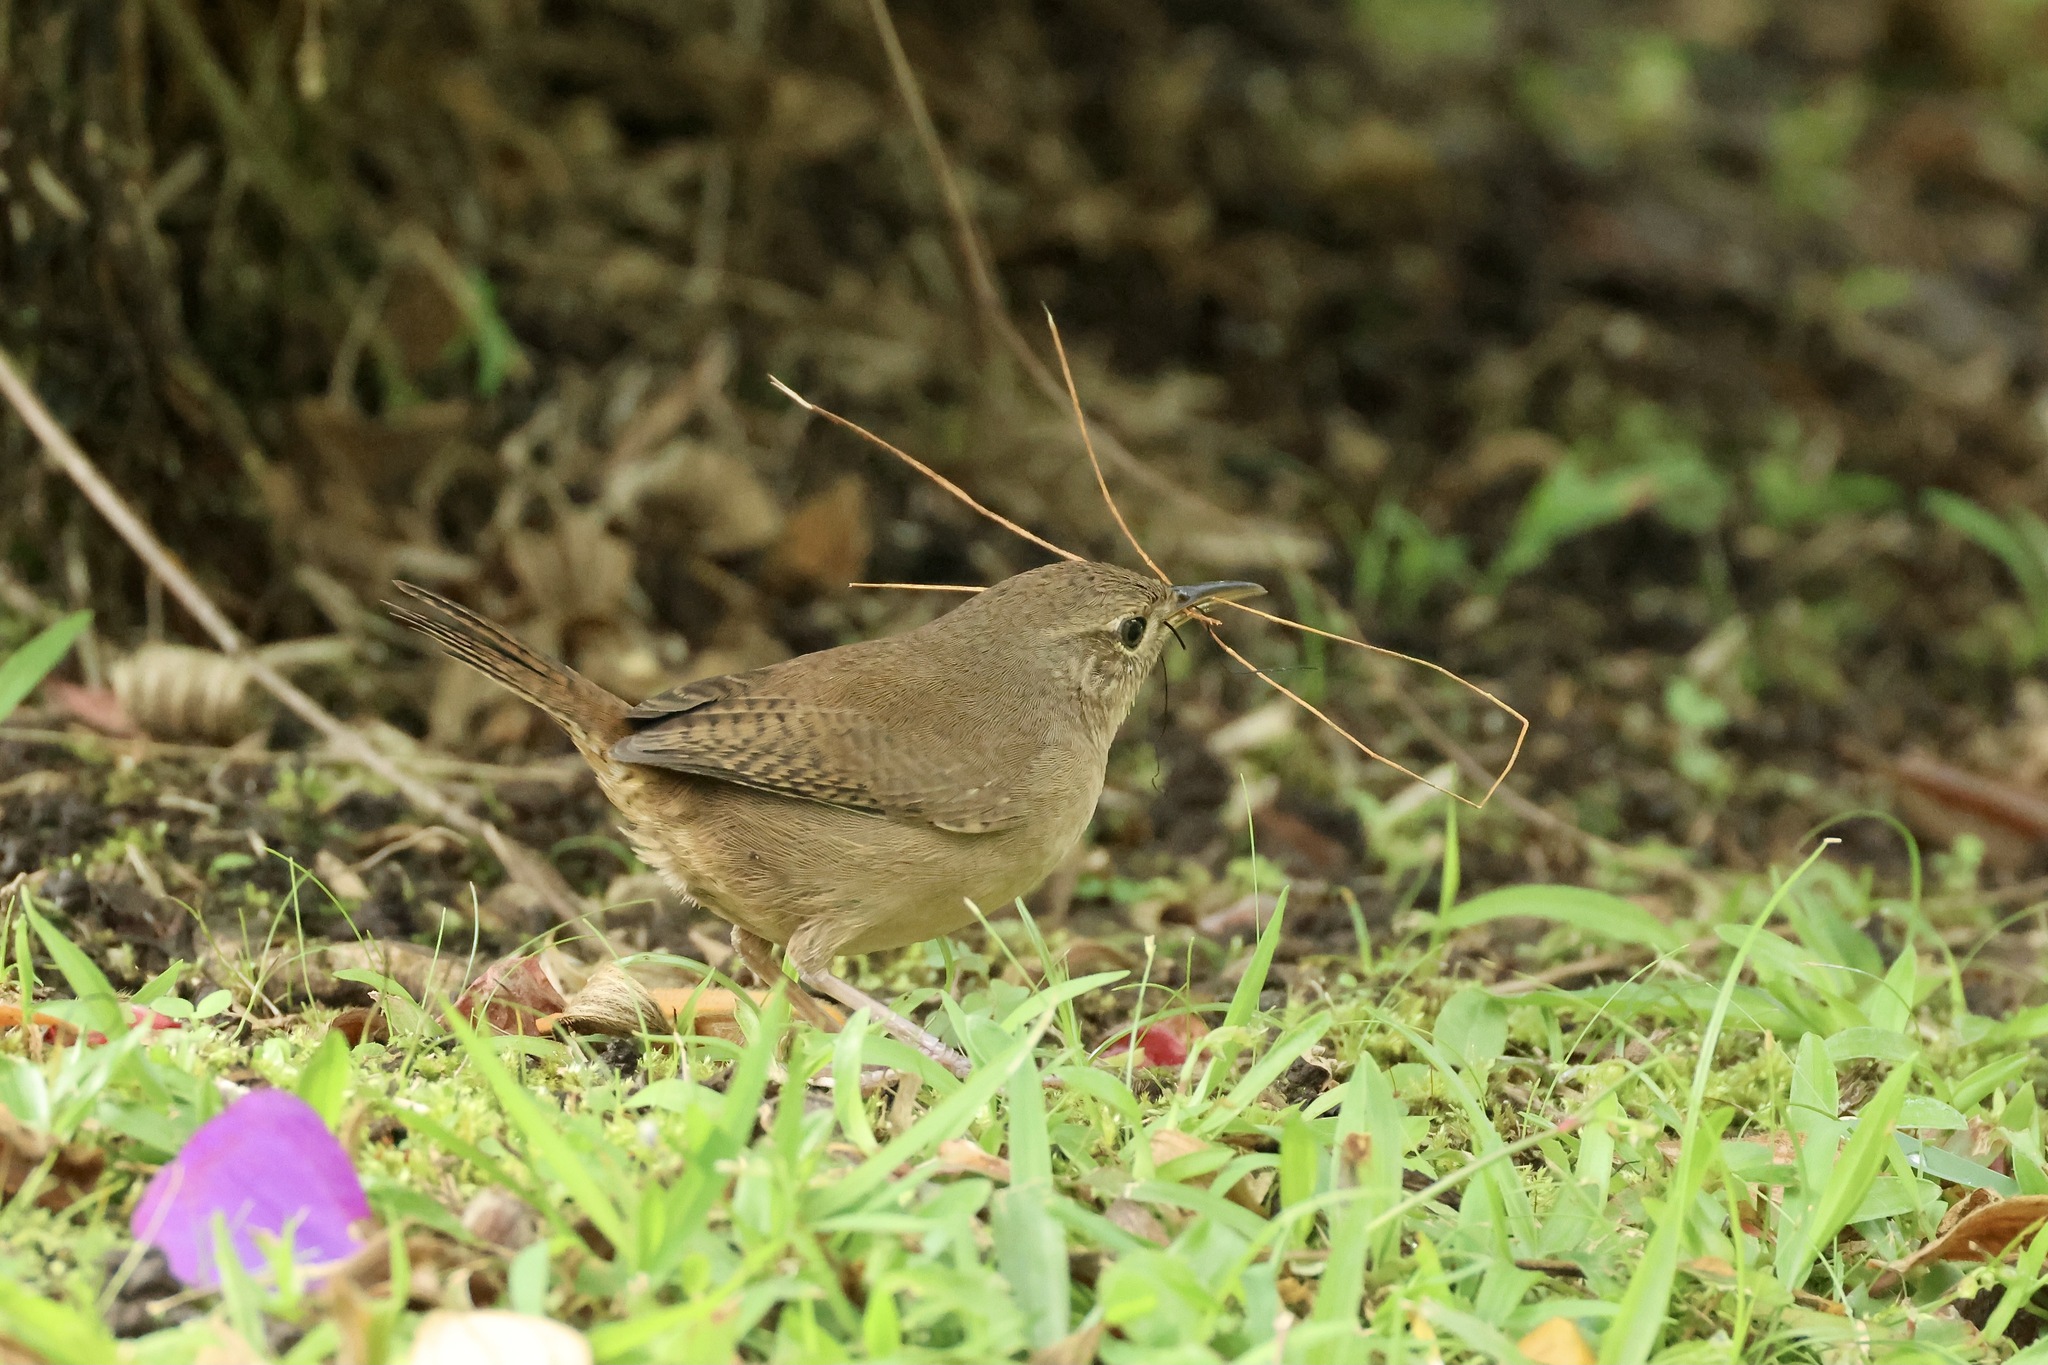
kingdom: Animalia
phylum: Chordata
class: Aves
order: Passeriformes
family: Troglodytidae
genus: Troglodytes
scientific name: Troglodytes aedon
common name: House wren
